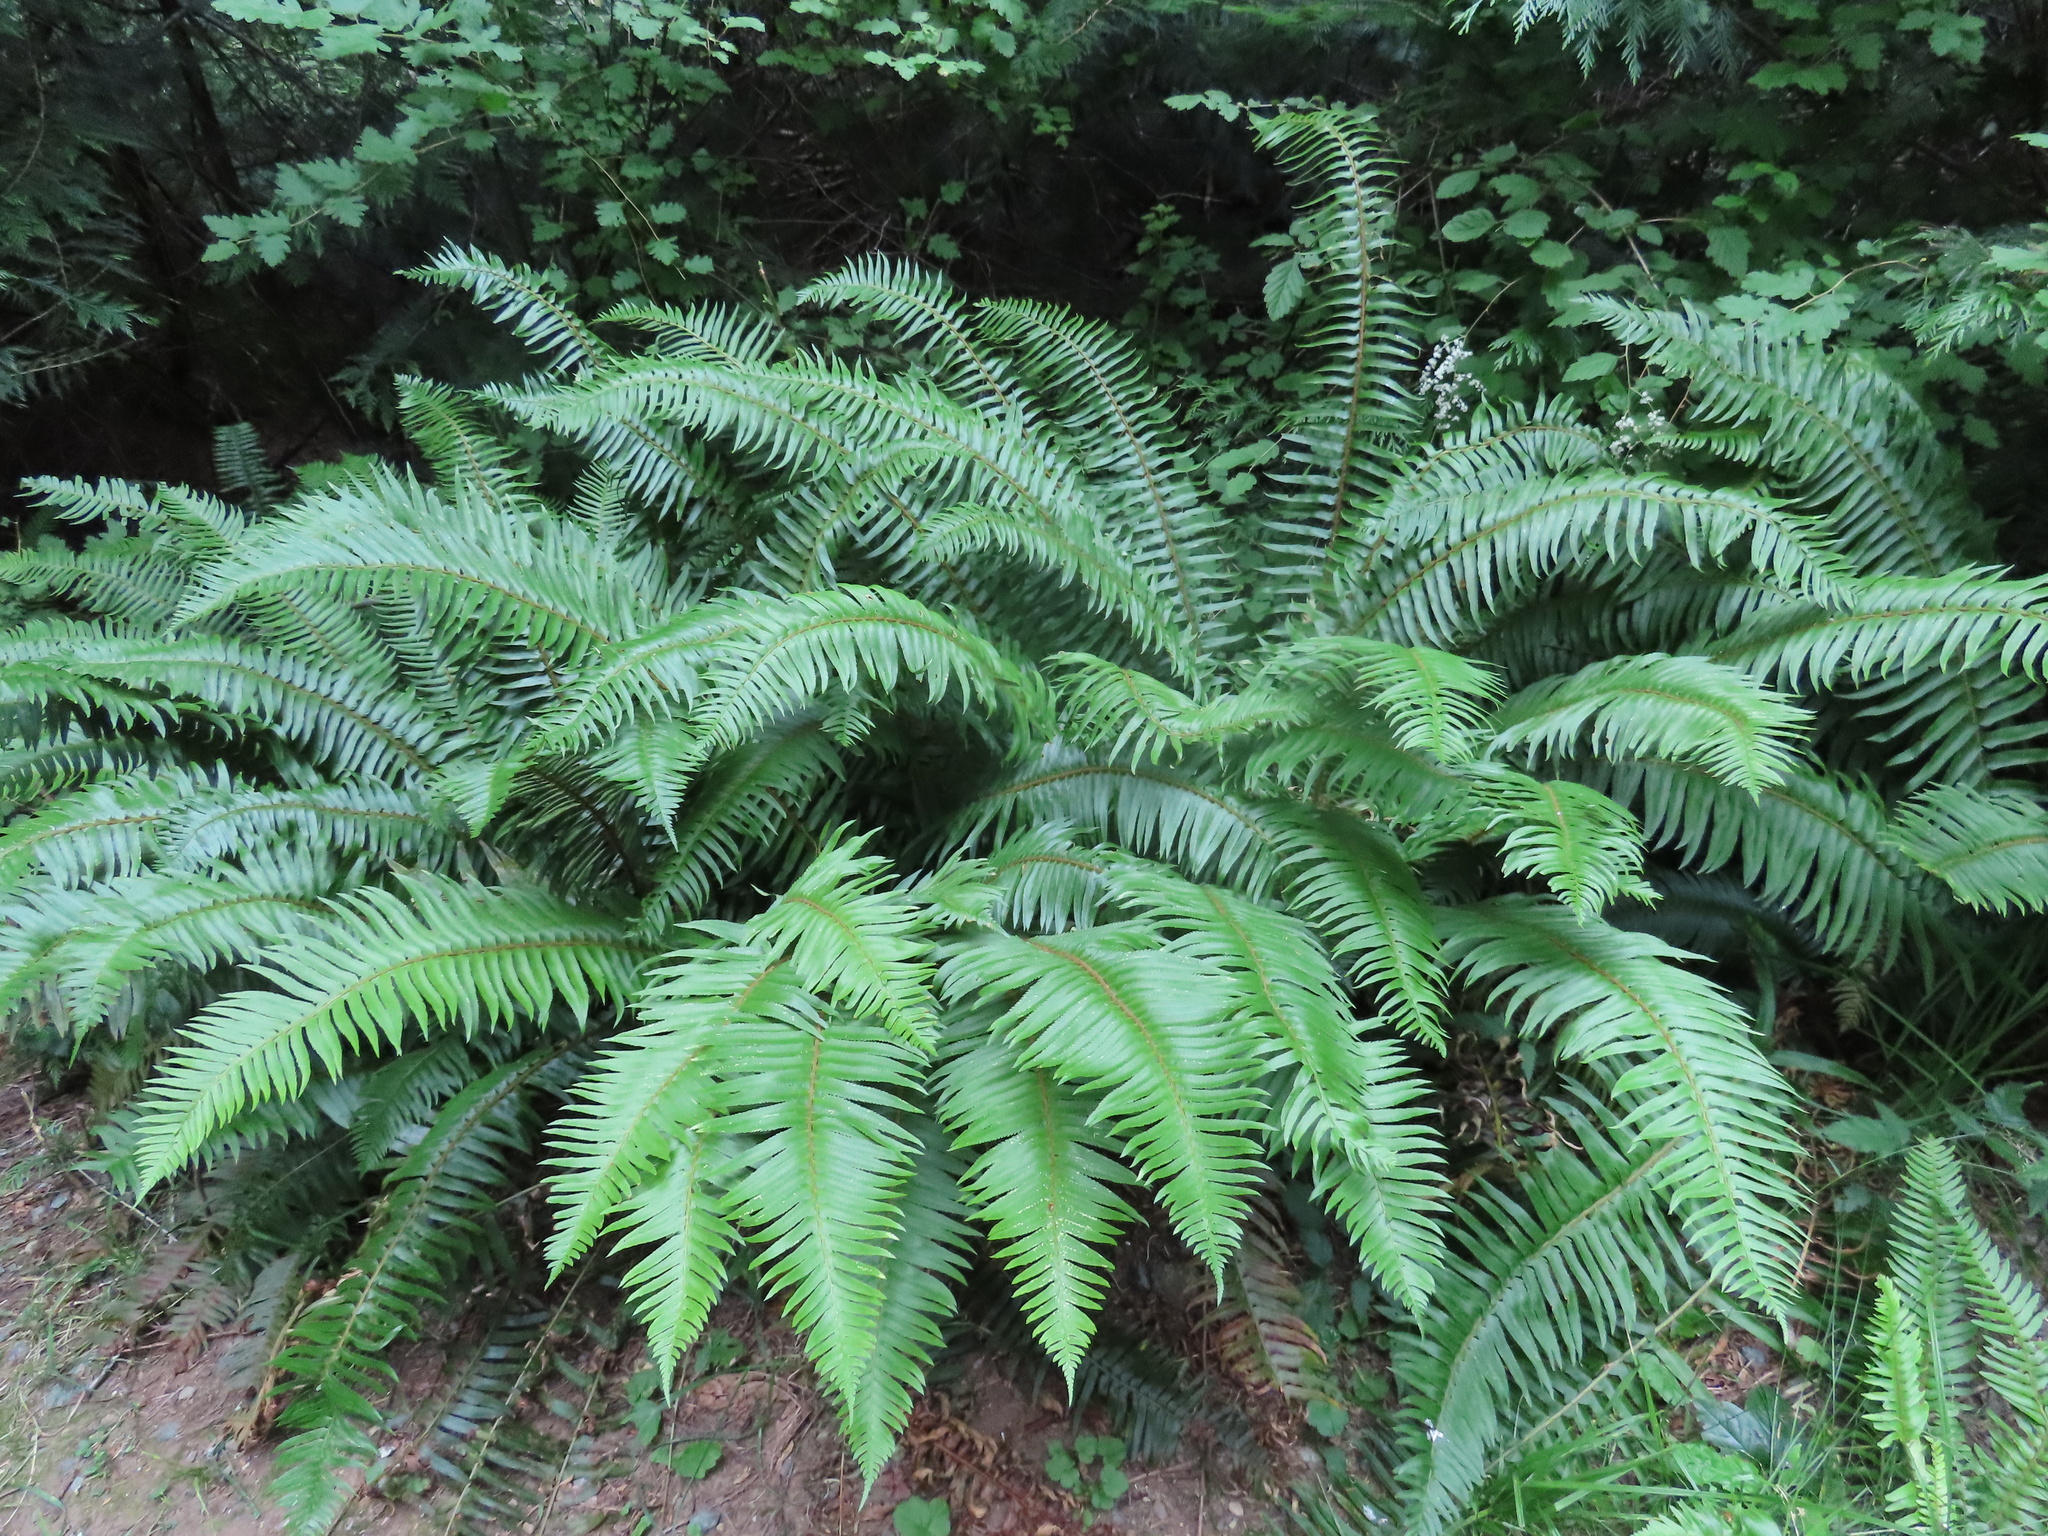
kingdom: Plantae
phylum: Tracheophyta
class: Polypodiopsida
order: Polypodiales
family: Dryopteridaceae
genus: Polystichum
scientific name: Polystichum munitum
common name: Western sword-fern
